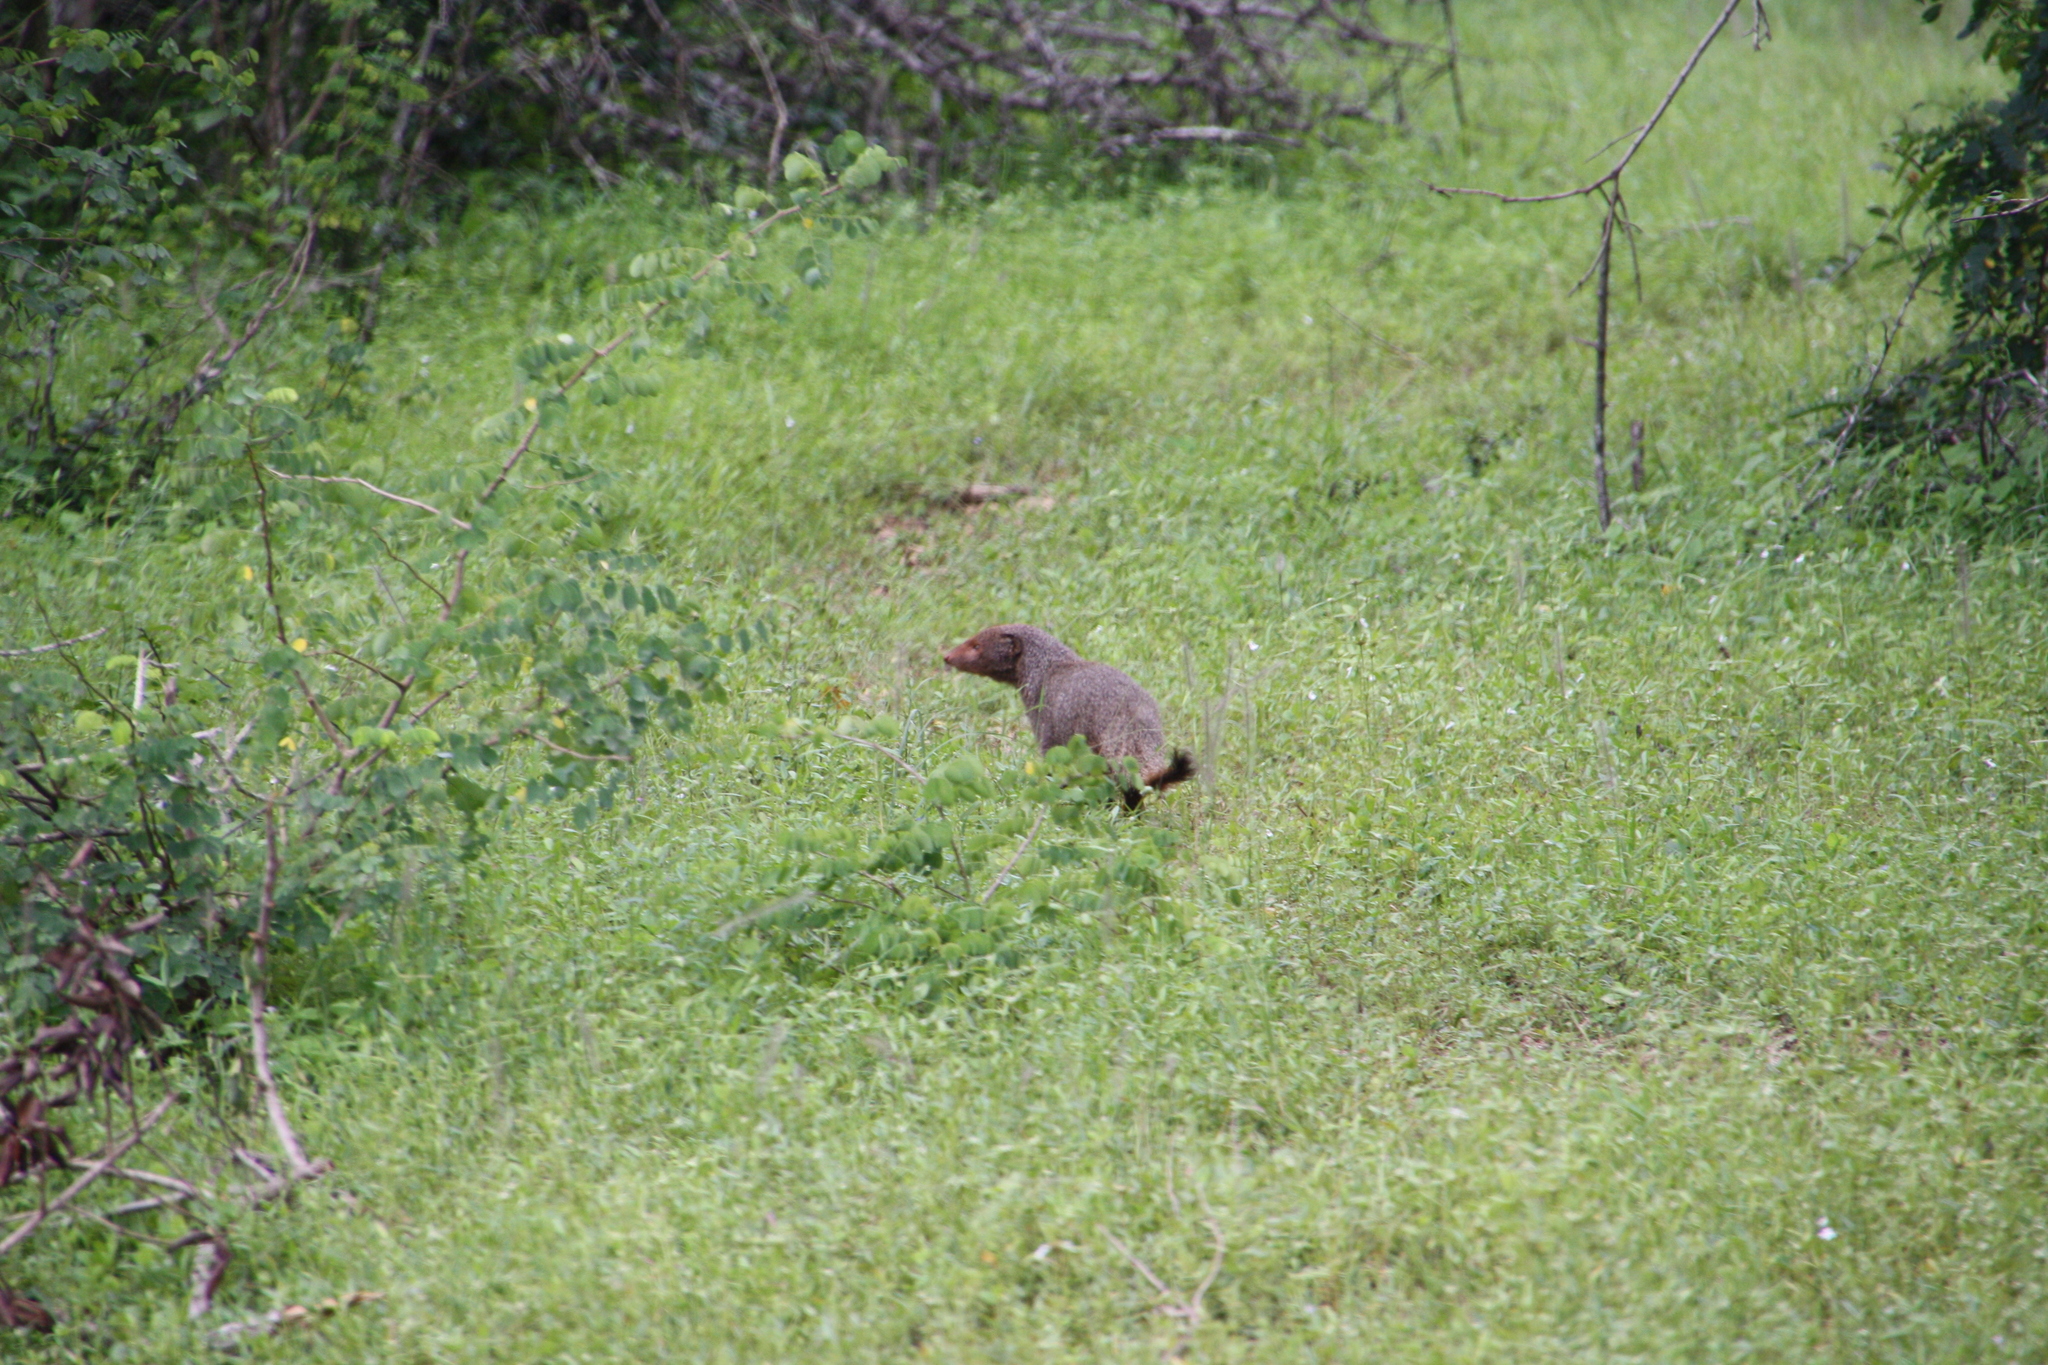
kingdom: Animalia
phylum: Chordata
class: Mammalia
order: Carnivora
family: Herpestidae
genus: Herpestes
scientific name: Herpestes smithii
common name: Ruddy mongoose
